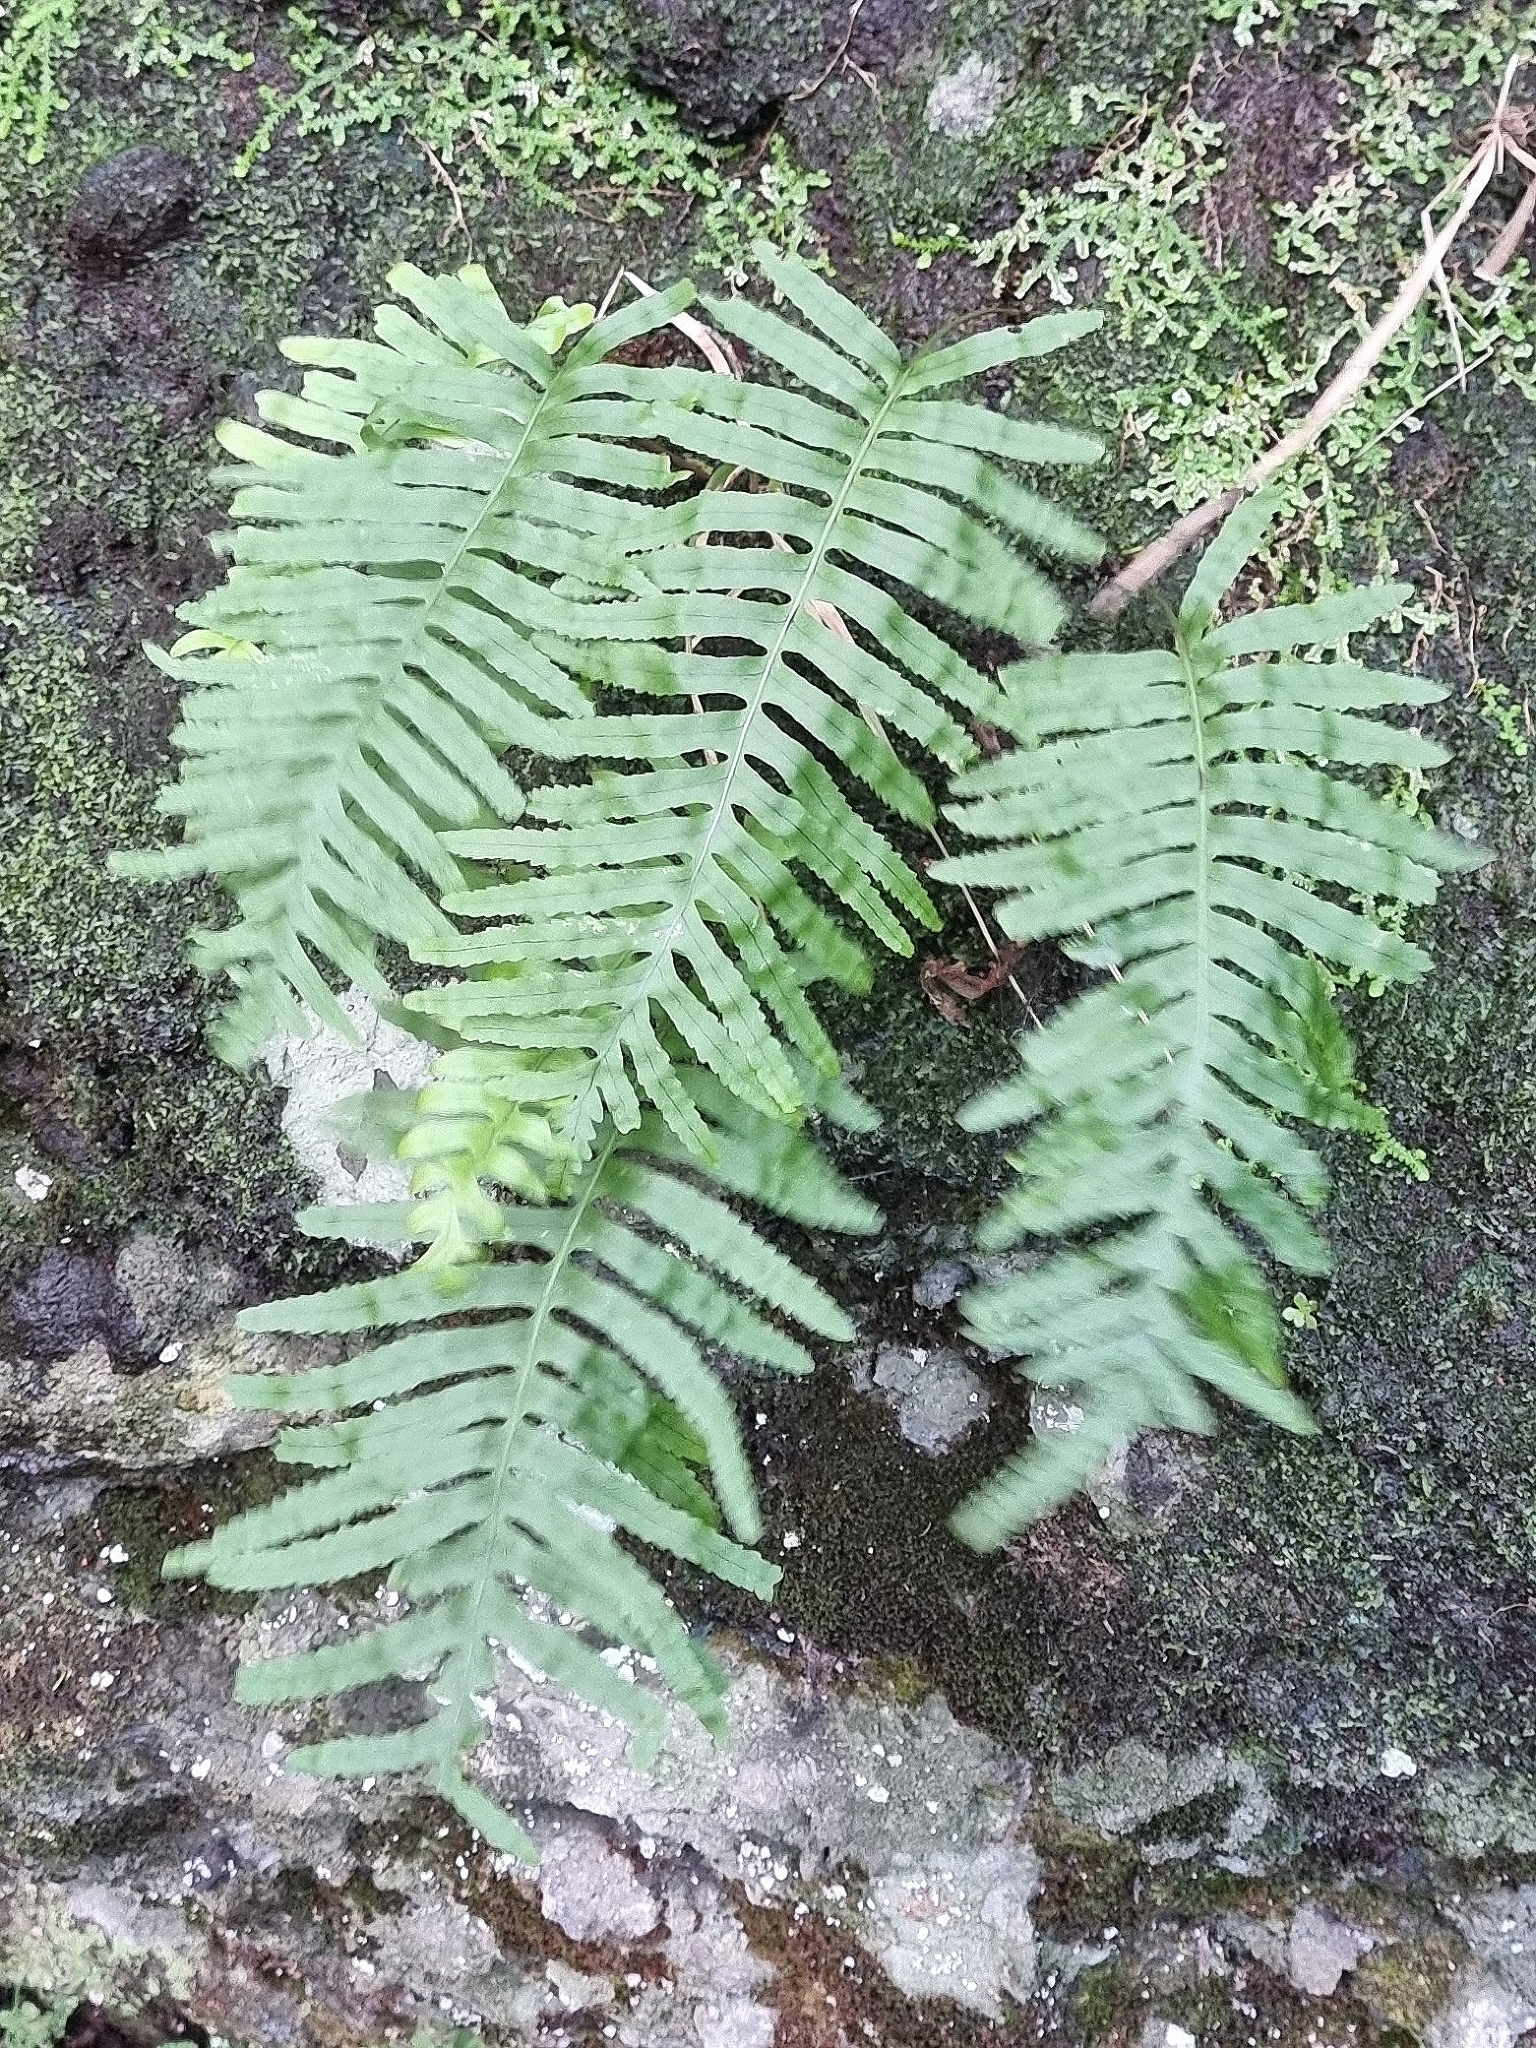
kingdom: Plantae
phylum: Tracheophyta
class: Polypodiopsida
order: Polypodiales
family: Polypodiaceae
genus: Polypodium
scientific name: Polypodium macaronesicum
